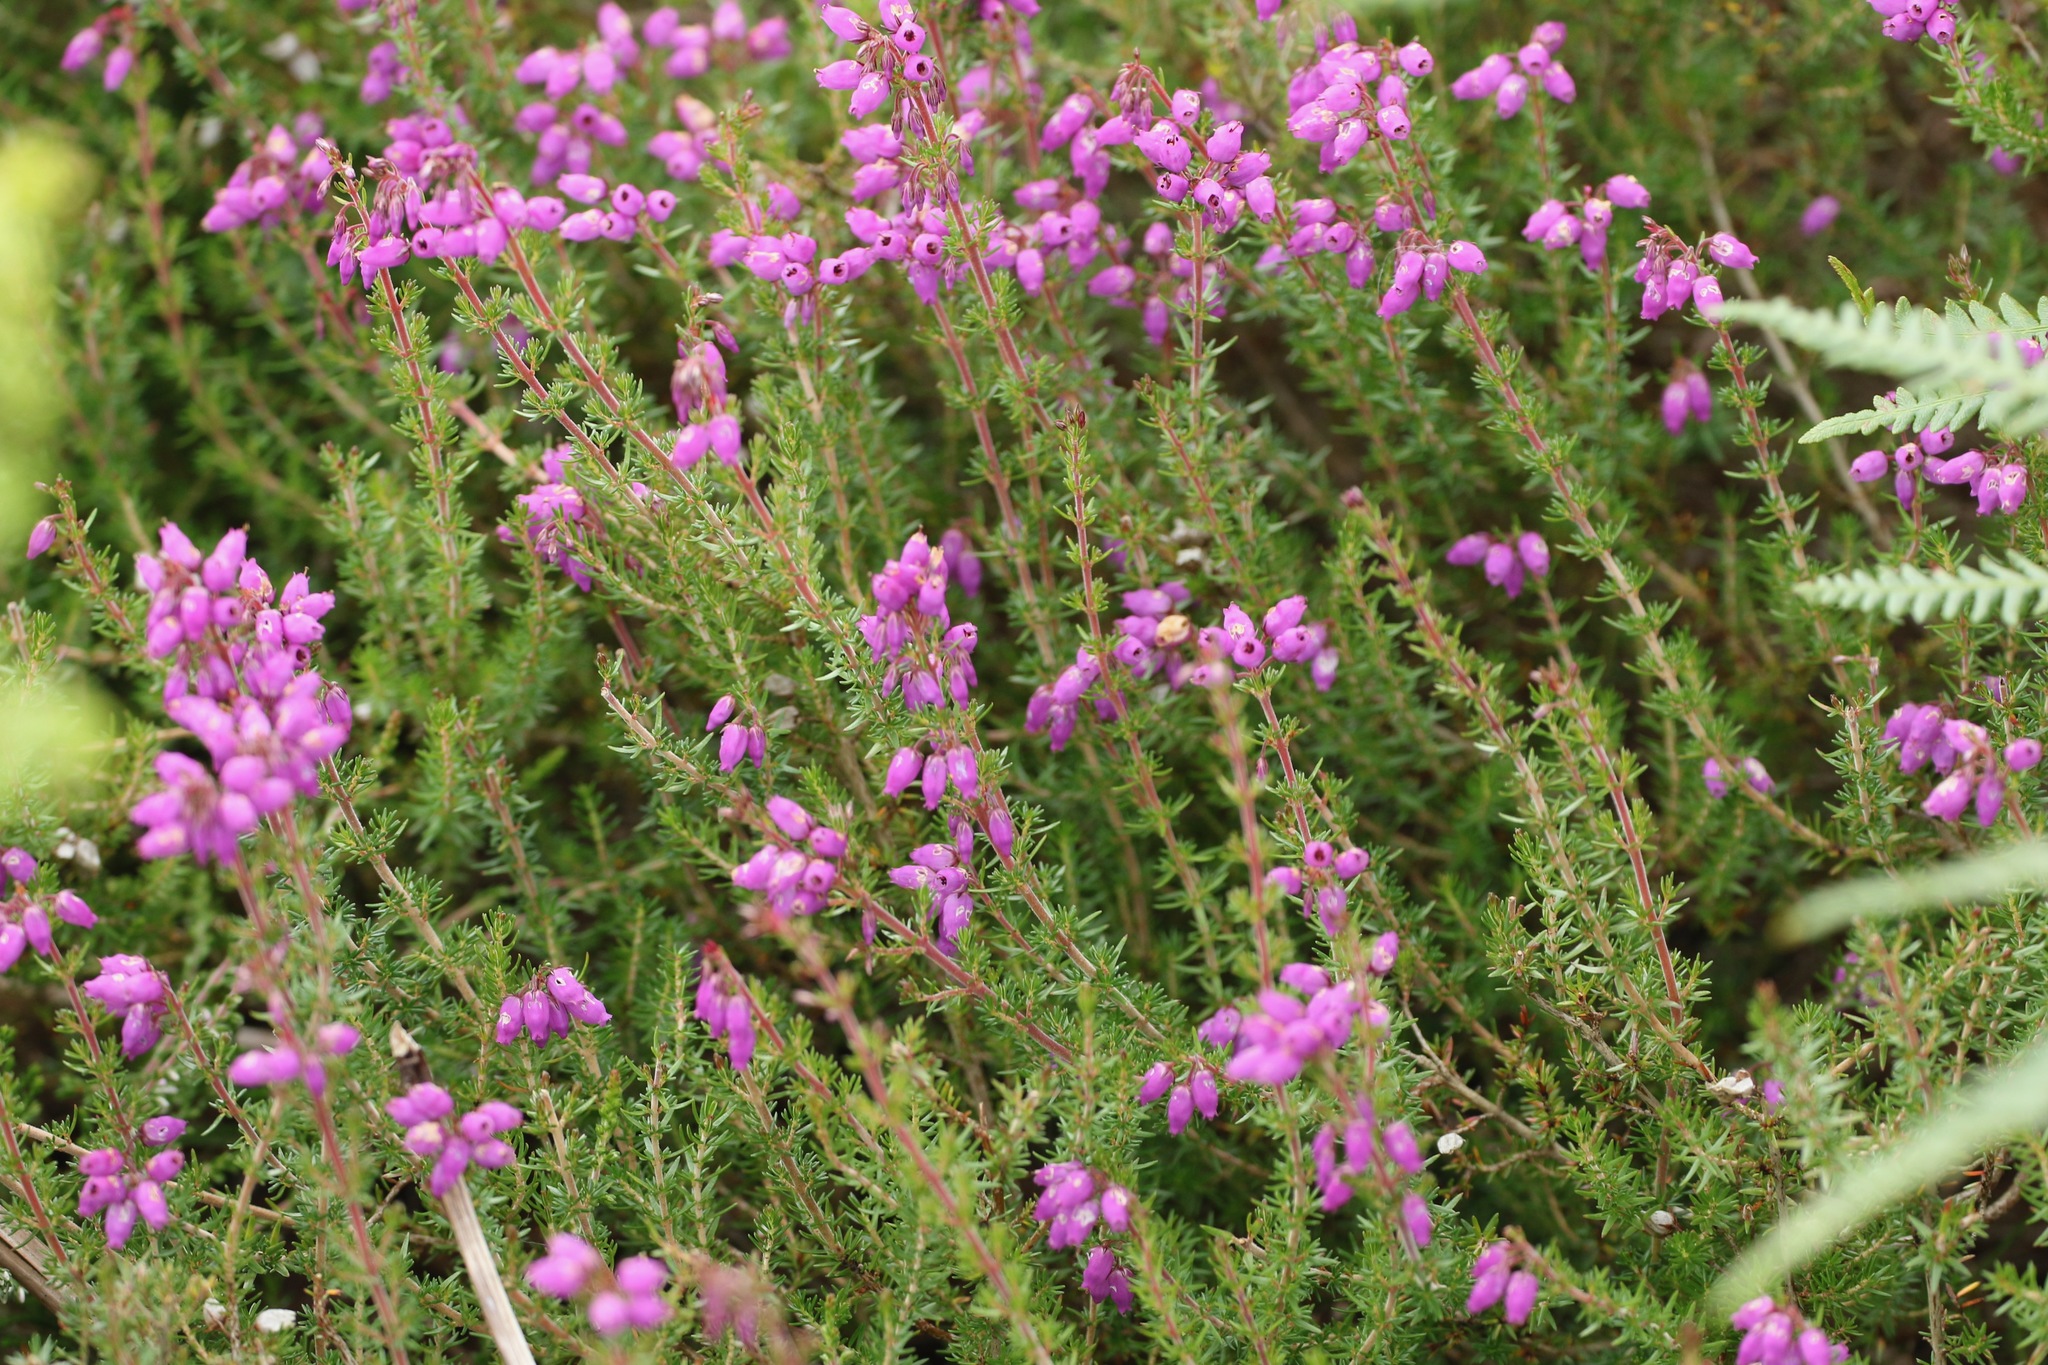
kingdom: Plantae
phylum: Tracheophyta
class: Magnoliopsida
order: Ericales
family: Ericaceae
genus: Erica
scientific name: Erica cinerea
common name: Bell heather
